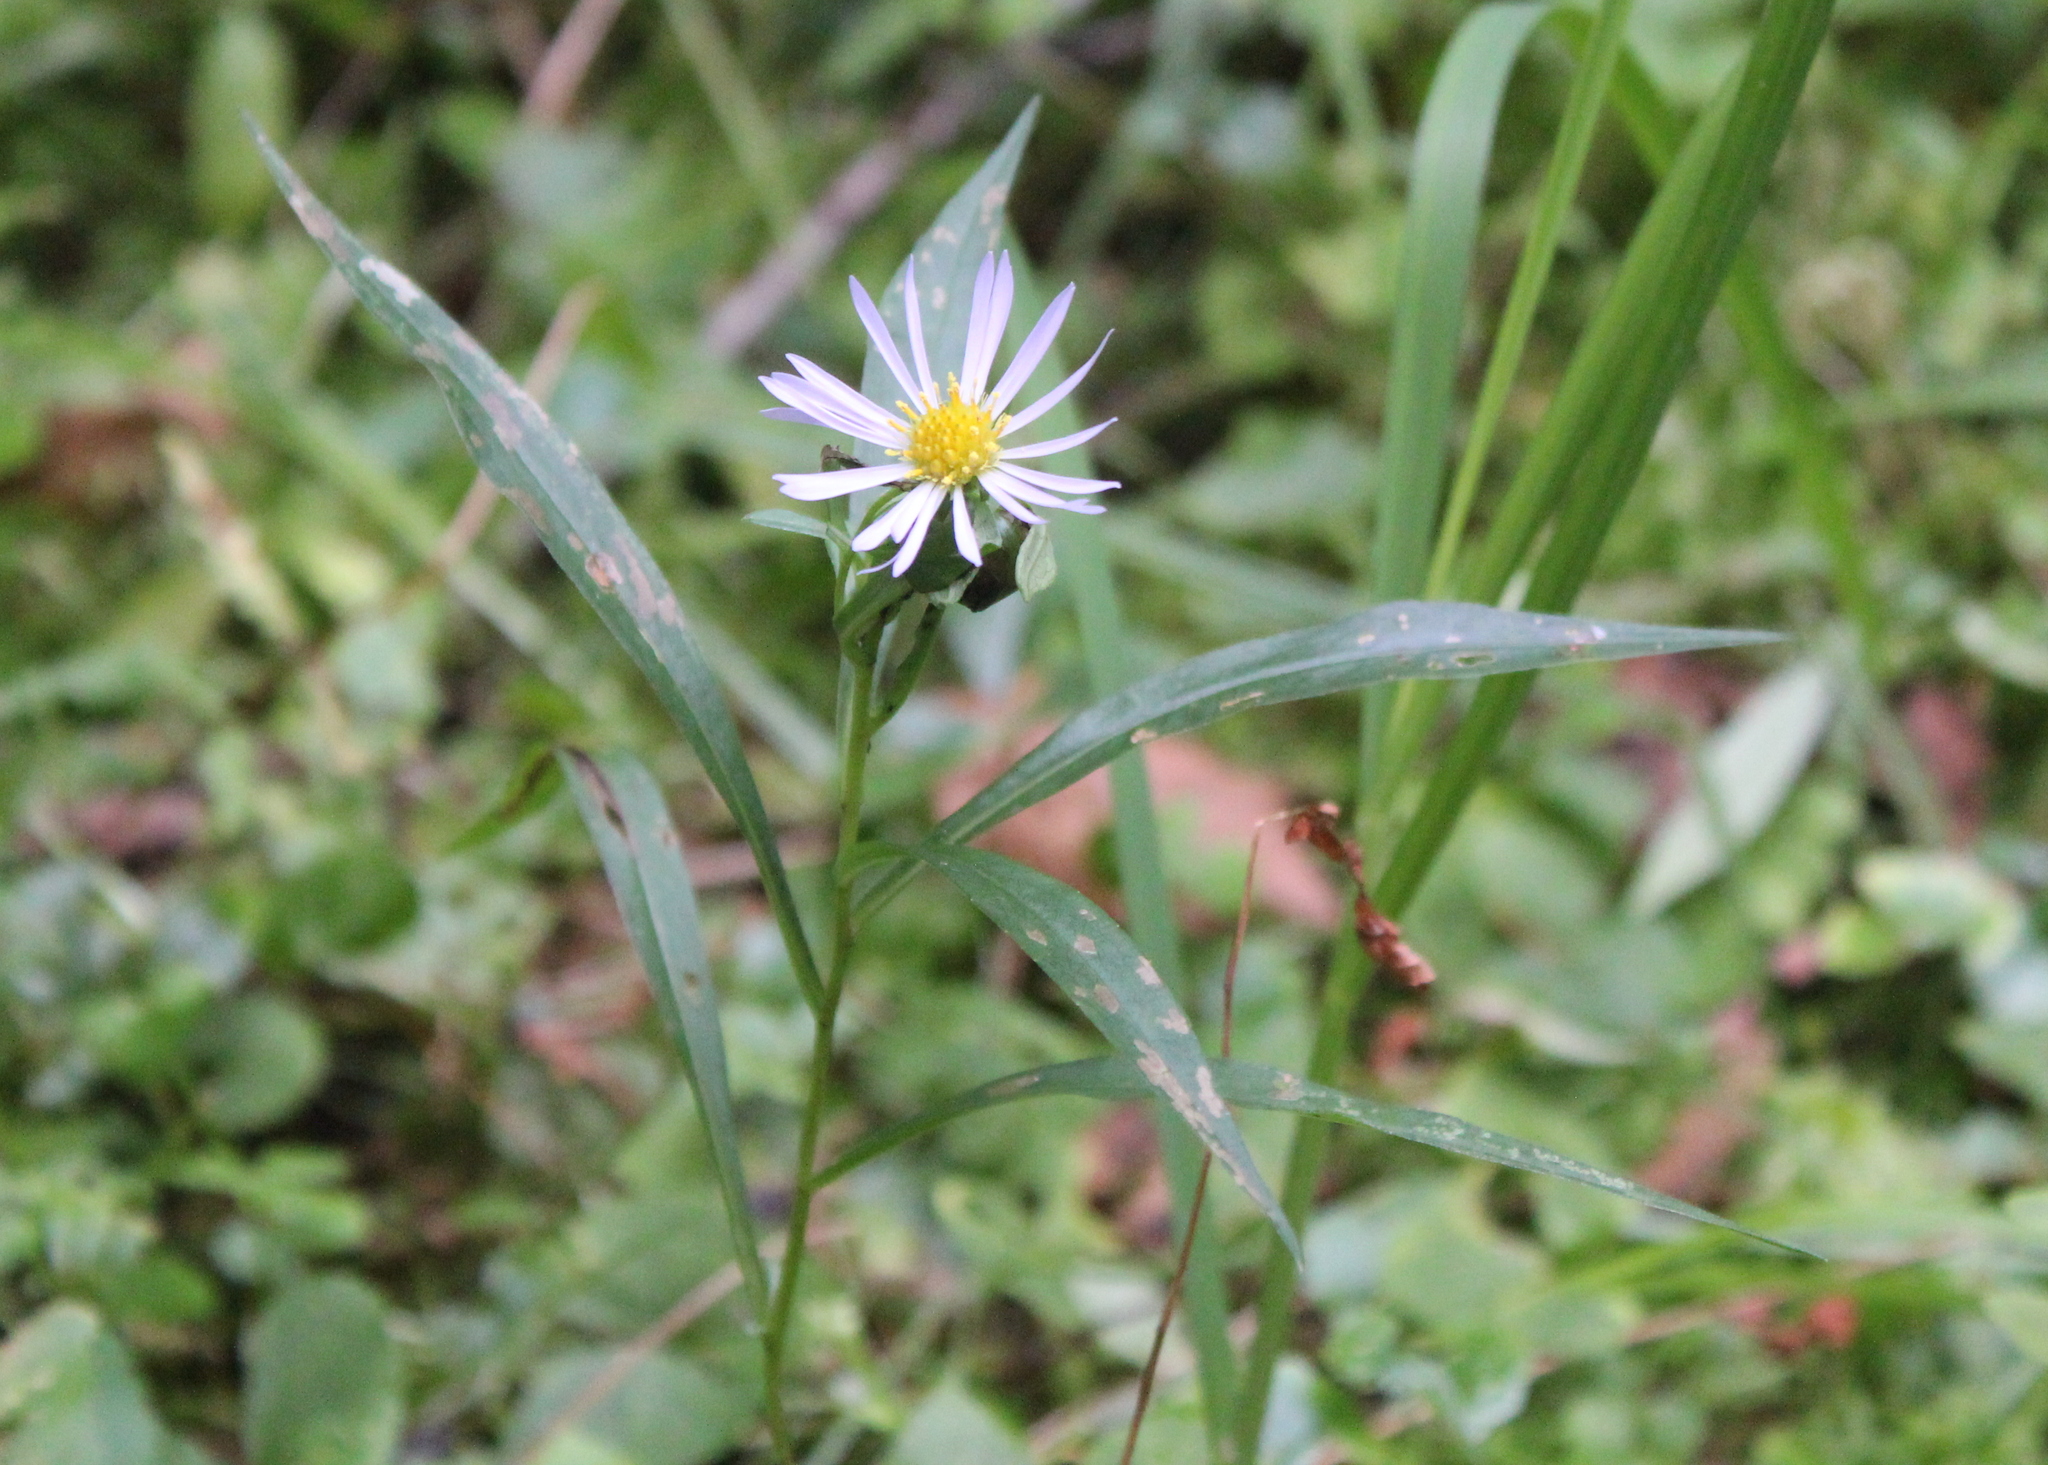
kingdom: Plantae
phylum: Tracheophyta
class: Magnoliopsida
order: Asterales
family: Asteraceae
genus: Symphyotrichum
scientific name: Symphyotrichum puniceum
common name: Bog aster
